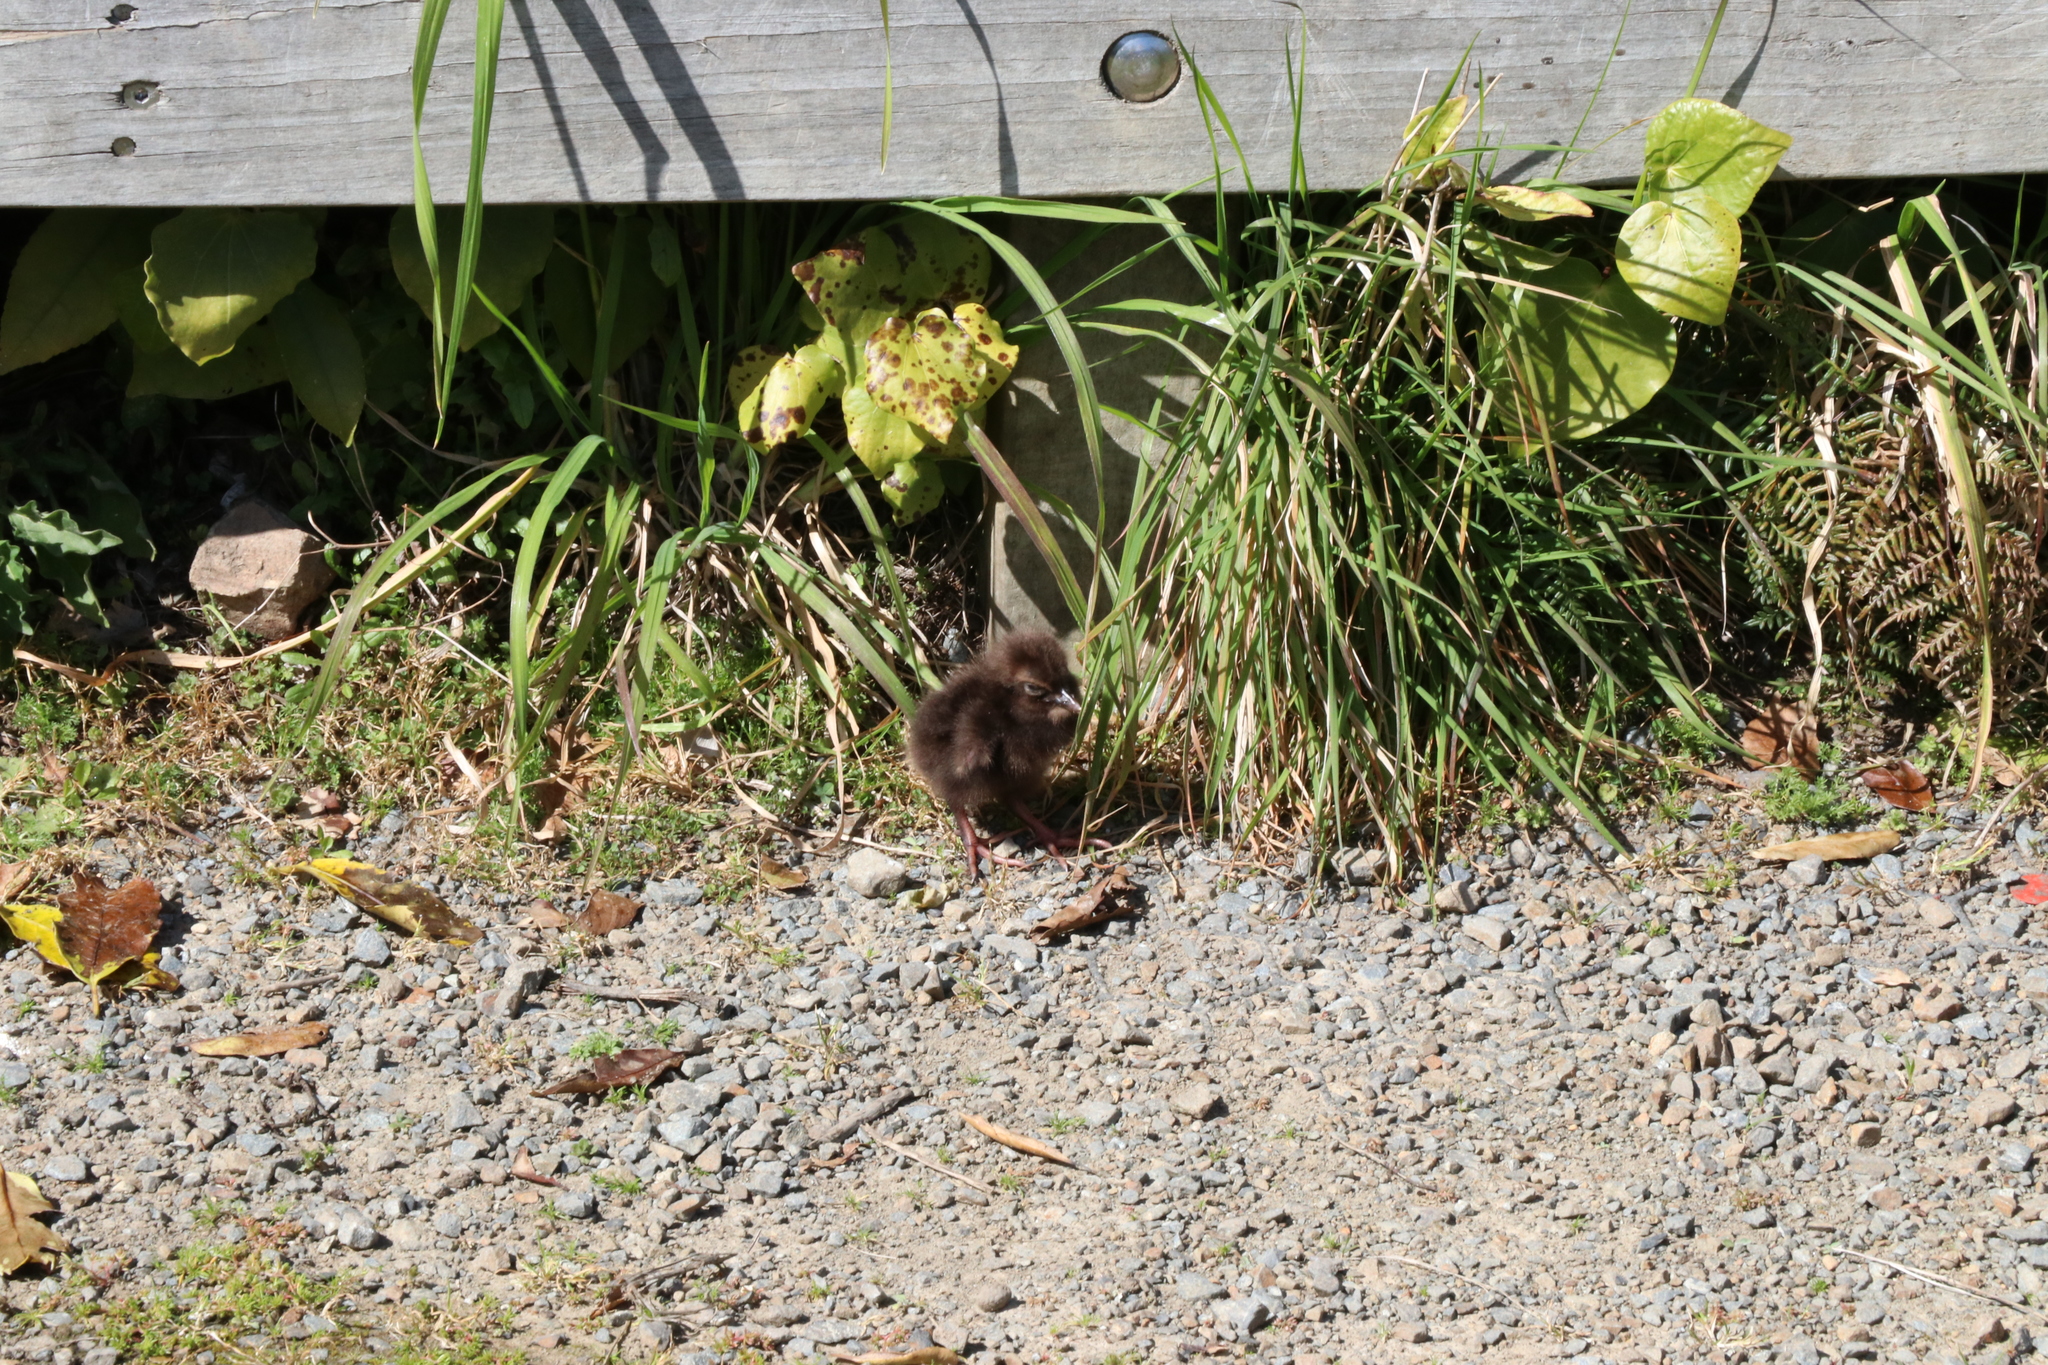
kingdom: Plantae
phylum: Tracheophyta
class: Magnoliopsida
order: Oxalidales
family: Elaeocarpaceae
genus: Elaeocarpus
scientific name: Elaeocarpus dentatus
